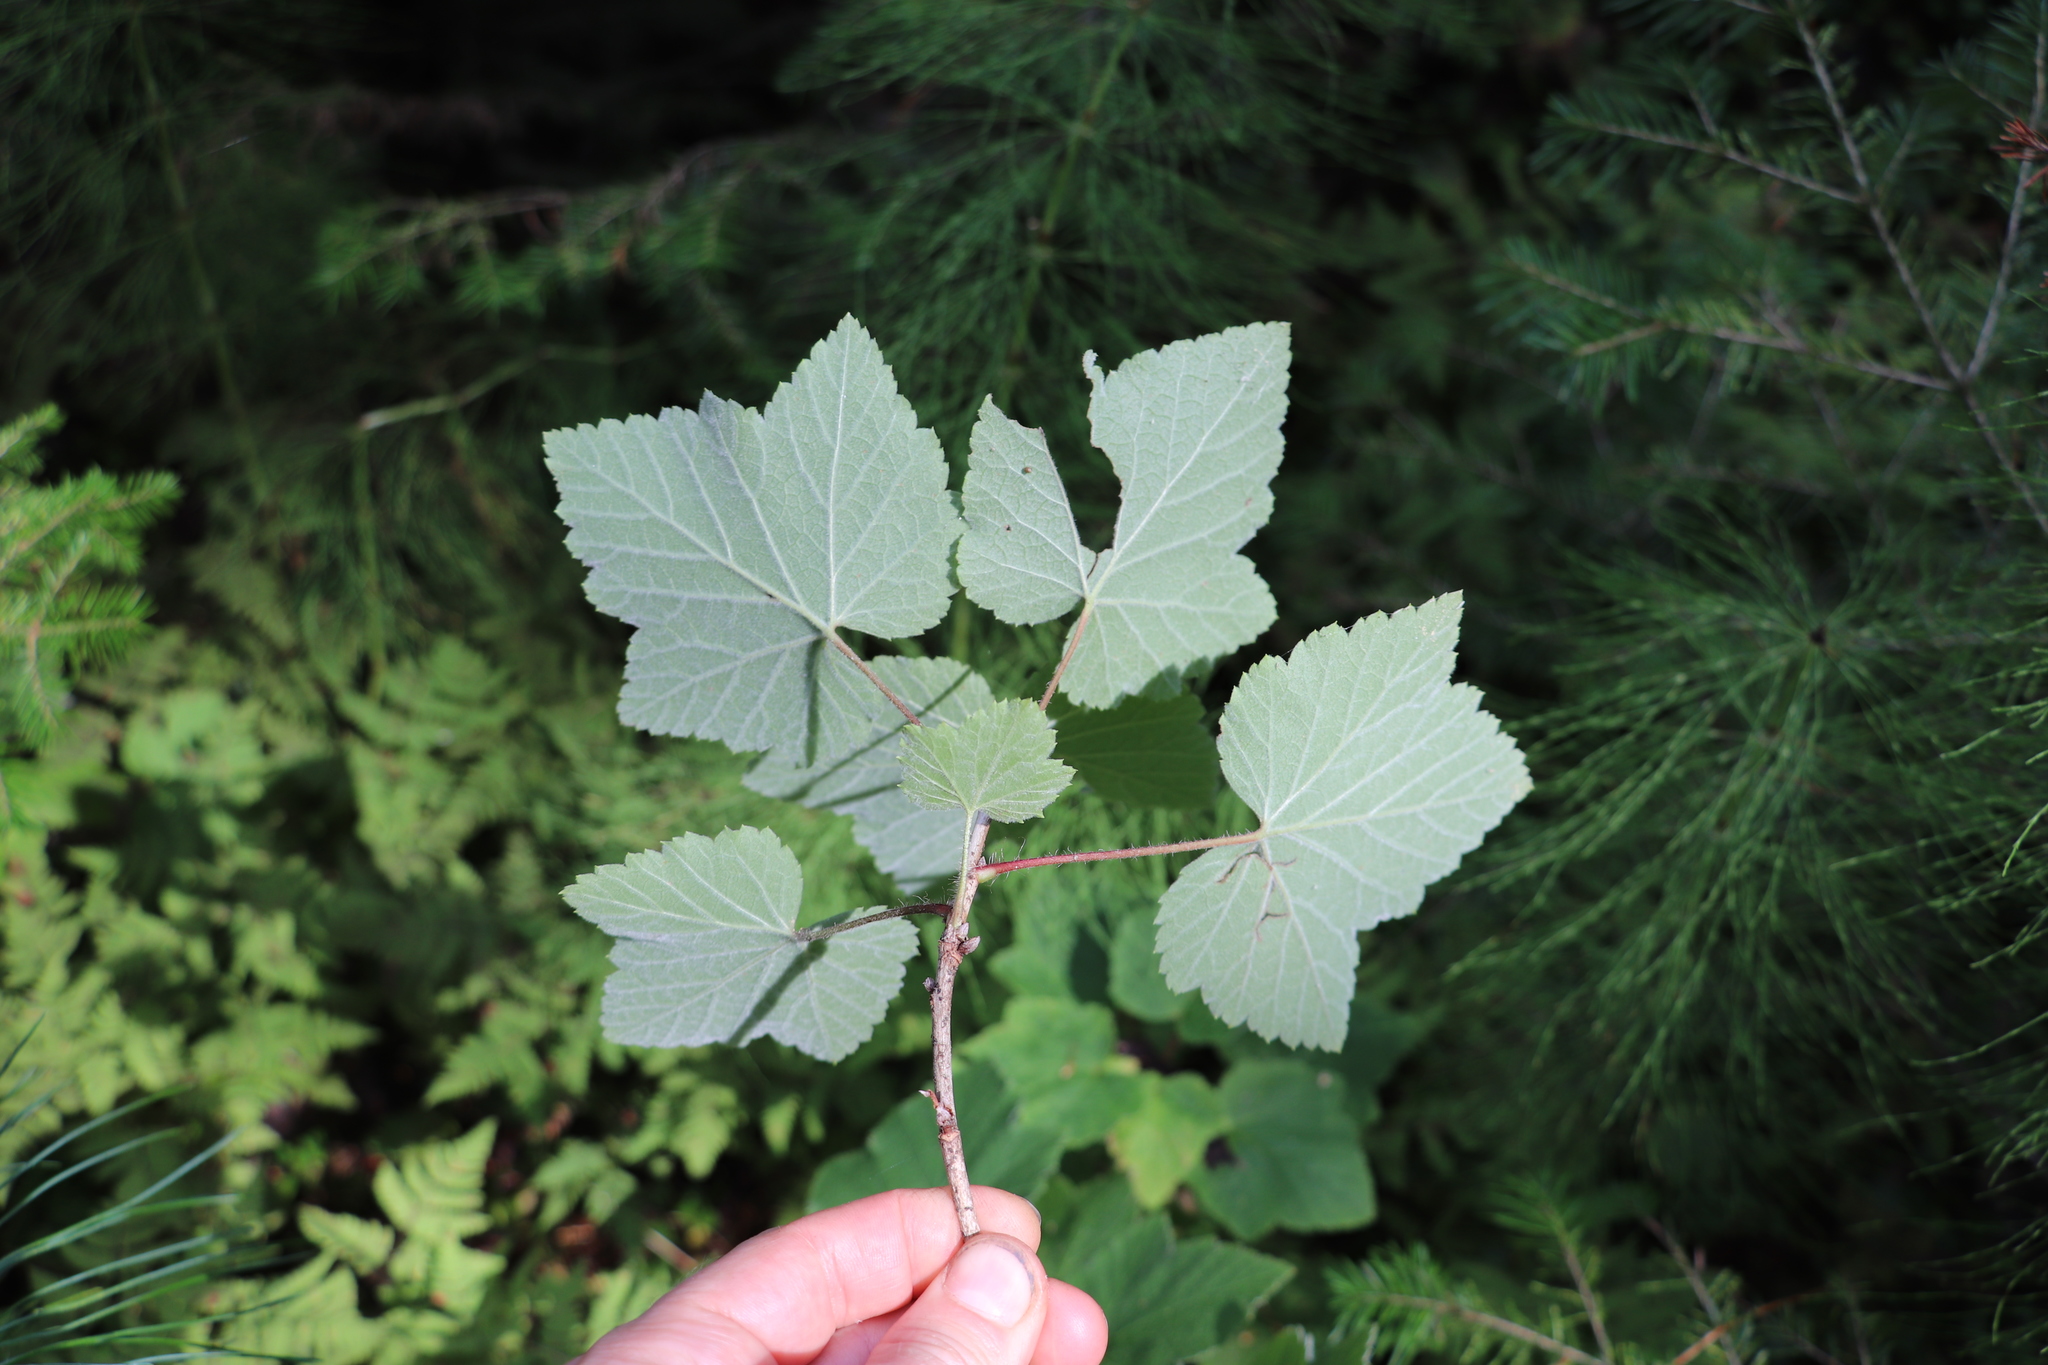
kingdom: Plantae
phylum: Tracheophyta
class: Magnoliopsida
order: Saxifragales
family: Grossulariaceae
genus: Ribes
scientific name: Ribes spicatum
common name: Downy currant
